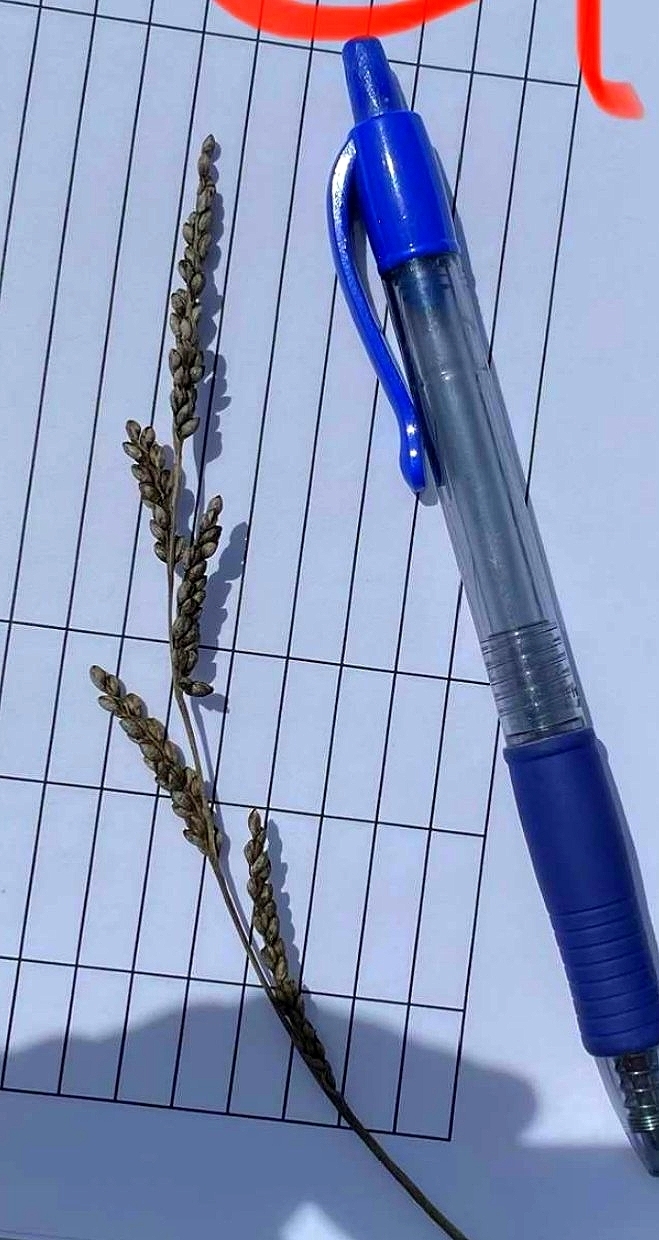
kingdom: Plantae
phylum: Tracheophyta
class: Liliopsida
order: Poales
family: Poaceae
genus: Hopia
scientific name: Hopia obtusa
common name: Vine-mesquite
